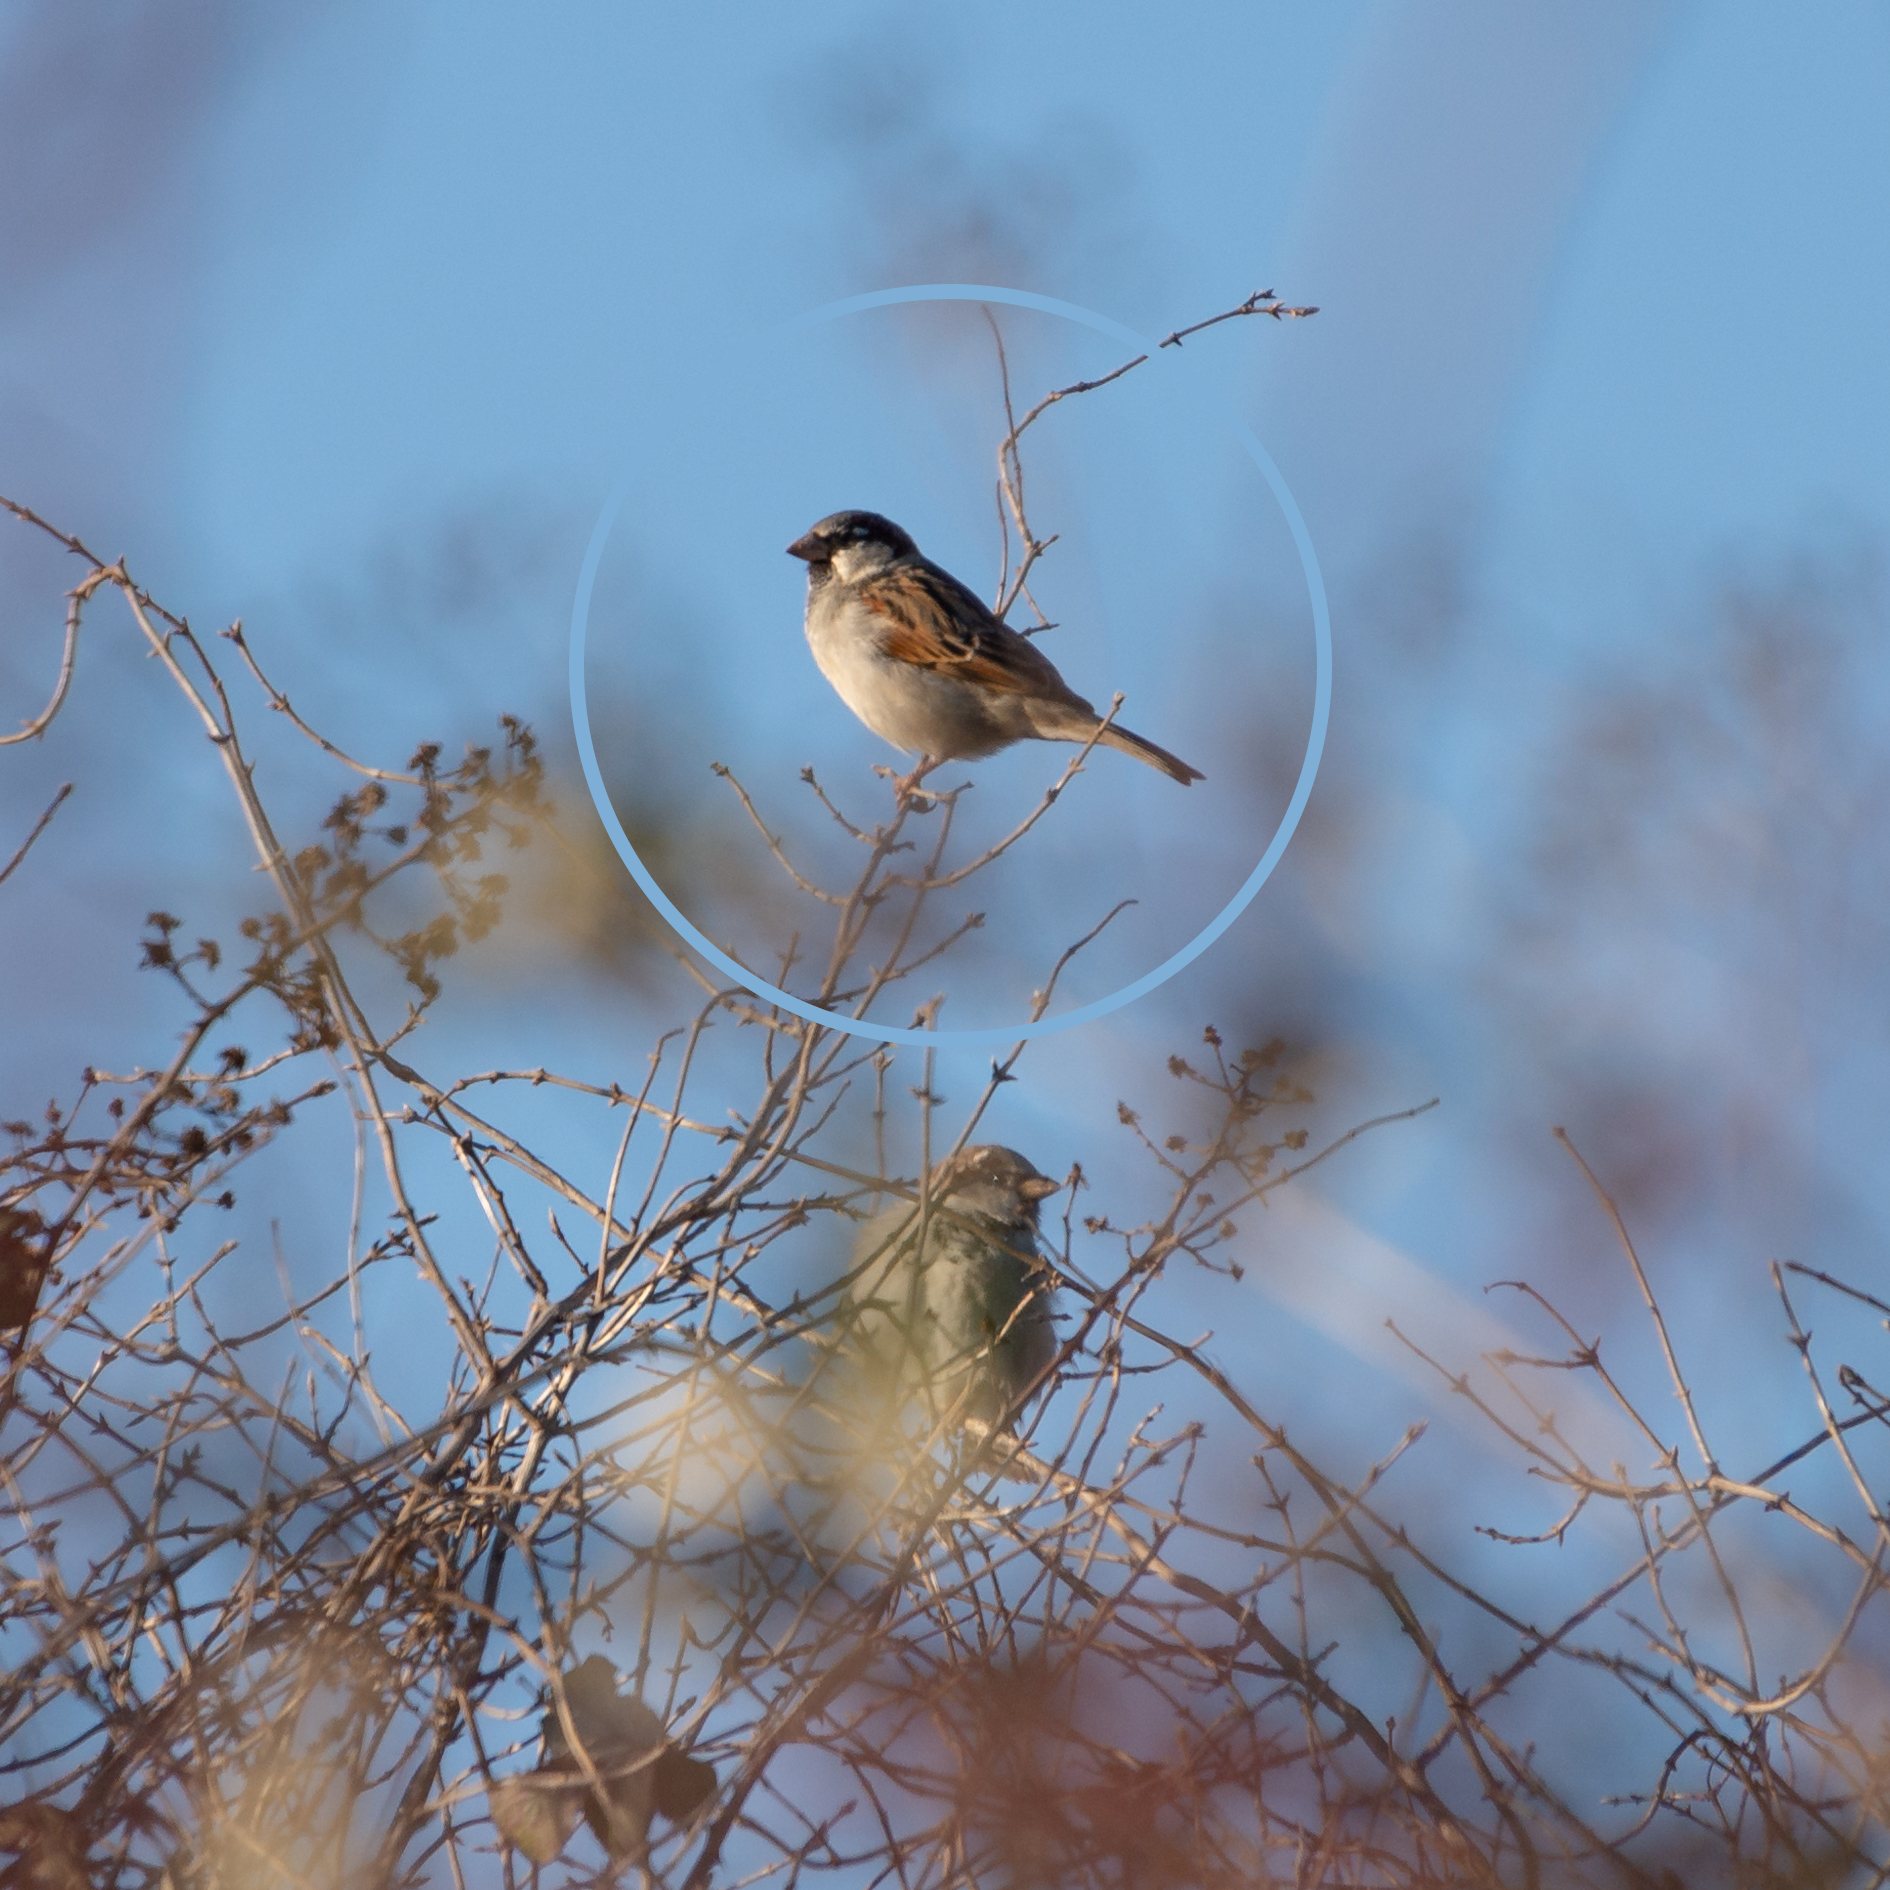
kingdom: Animalia
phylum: Chordata
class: Aves
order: Passeriformes
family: Passeridae
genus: Passer
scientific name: Passer domesticus
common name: House sparrow
